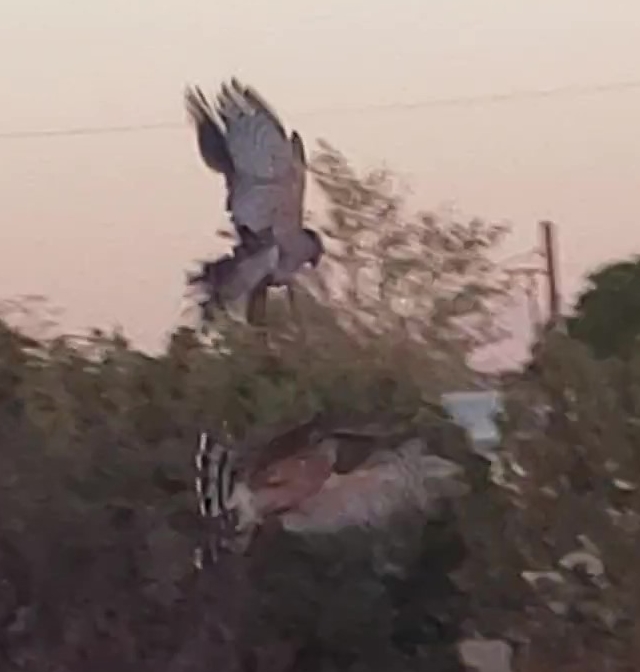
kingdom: Animalia
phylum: Chordata
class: Aves
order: Accipitriformes
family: Accipitridae
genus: Accipiter
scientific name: Accipiter cooperii
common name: Cooper's hawk
